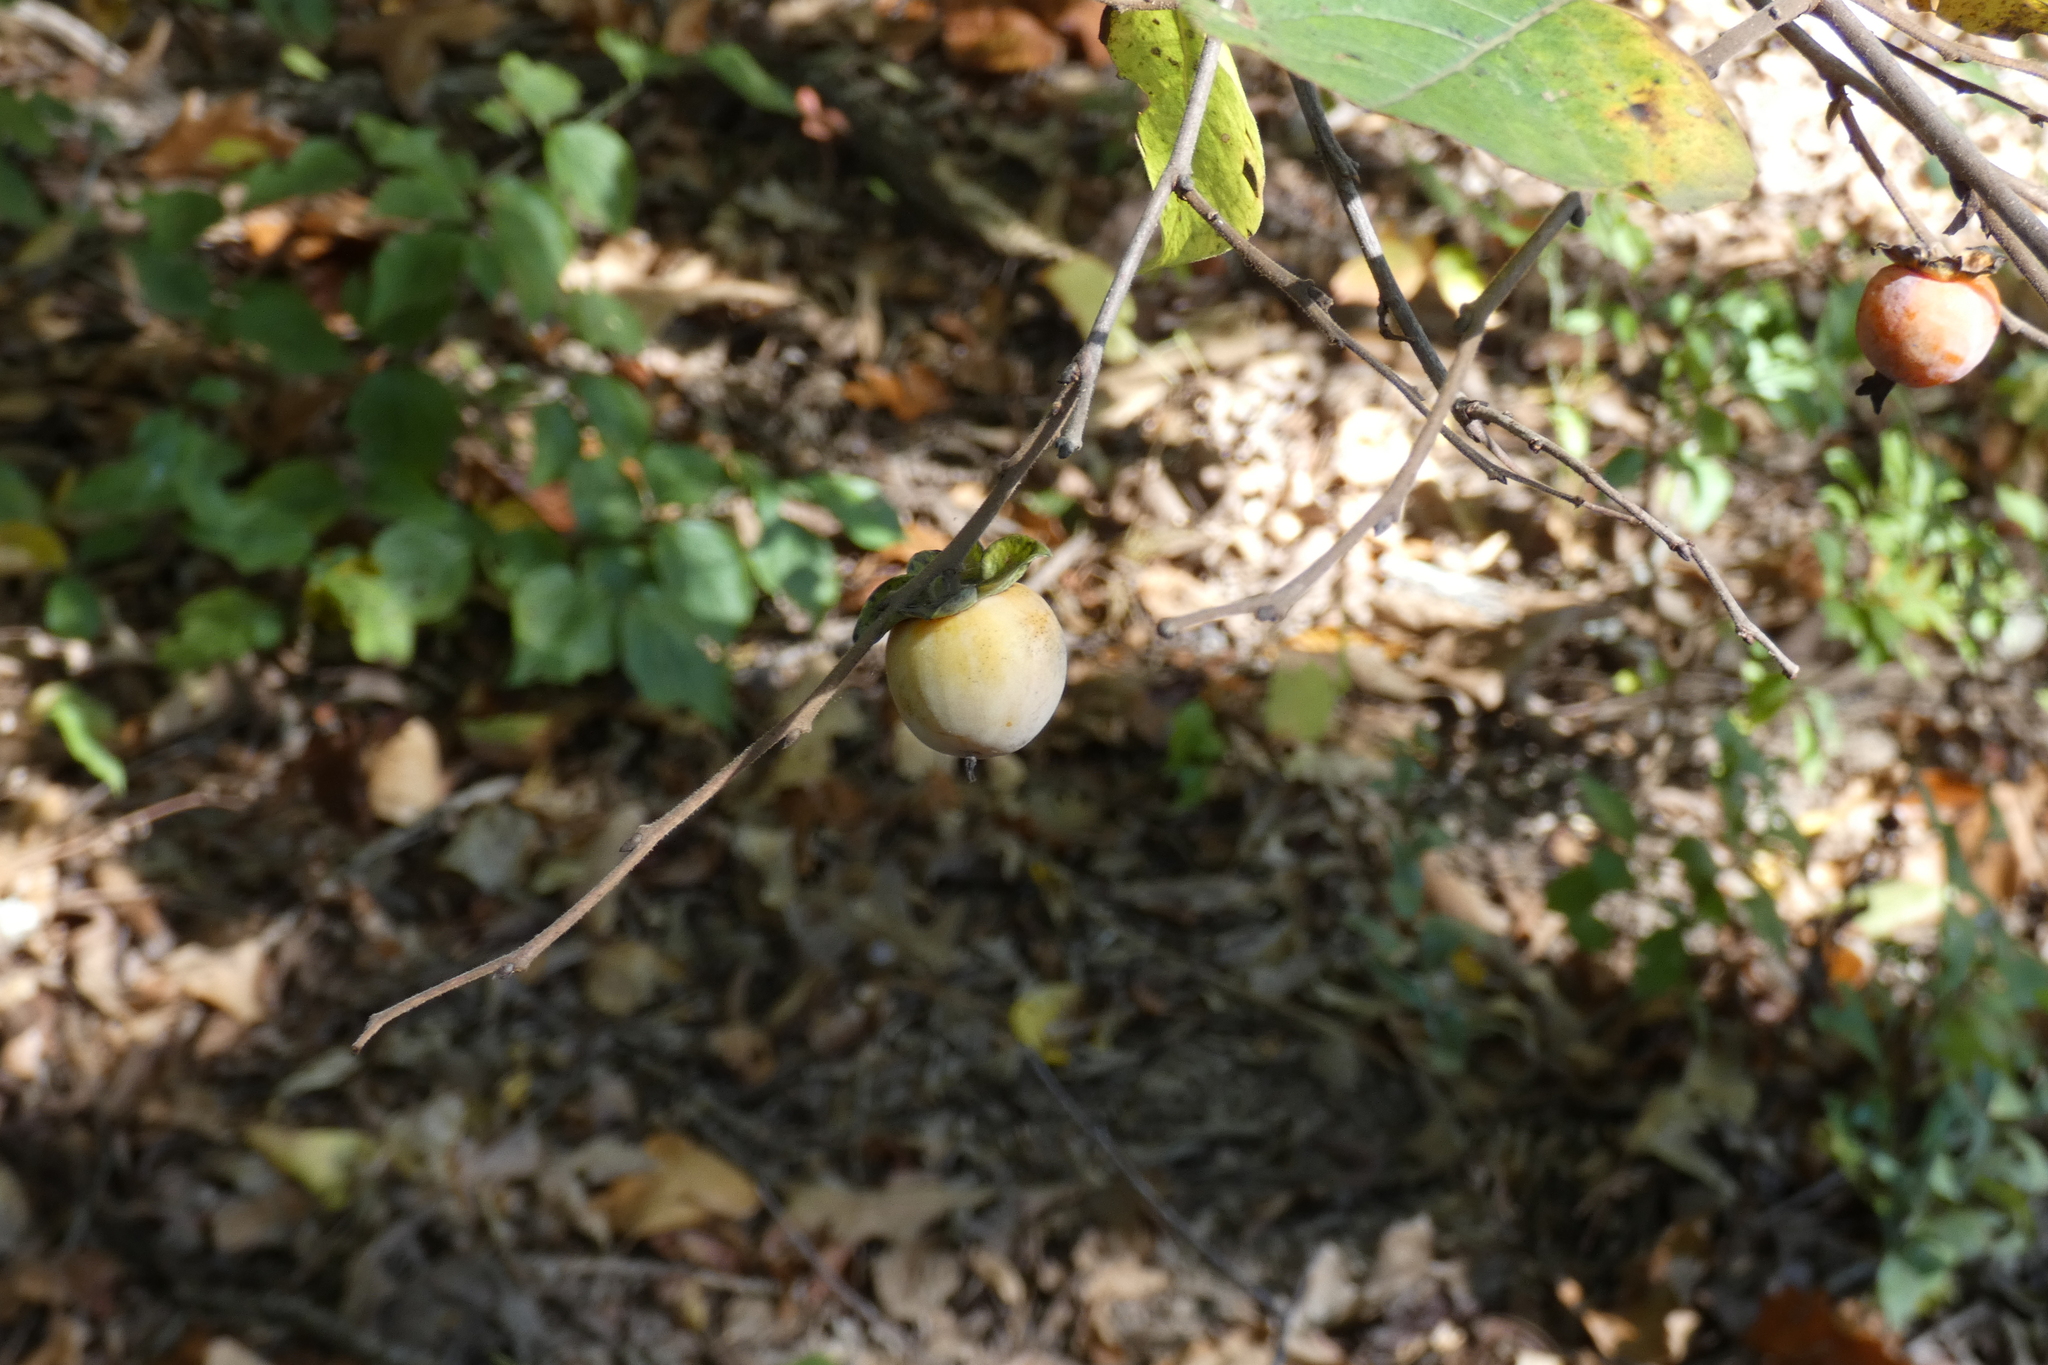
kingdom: Plantae
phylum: Tracheophyta
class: Magnoliopsida
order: Ericales
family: Ebenaceae
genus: Diospyros
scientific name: Diospyros virginiana
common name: Persimmon
